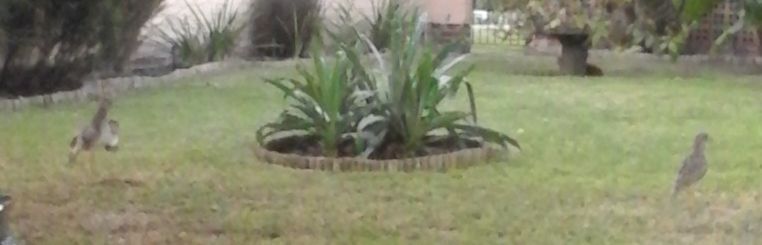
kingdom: Animalia
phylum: Chordata
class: Aves
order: Charadriiformes
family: Burhinidae
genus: Burhinus
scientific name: Burhinus capensis
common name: Spotted thick-knee
